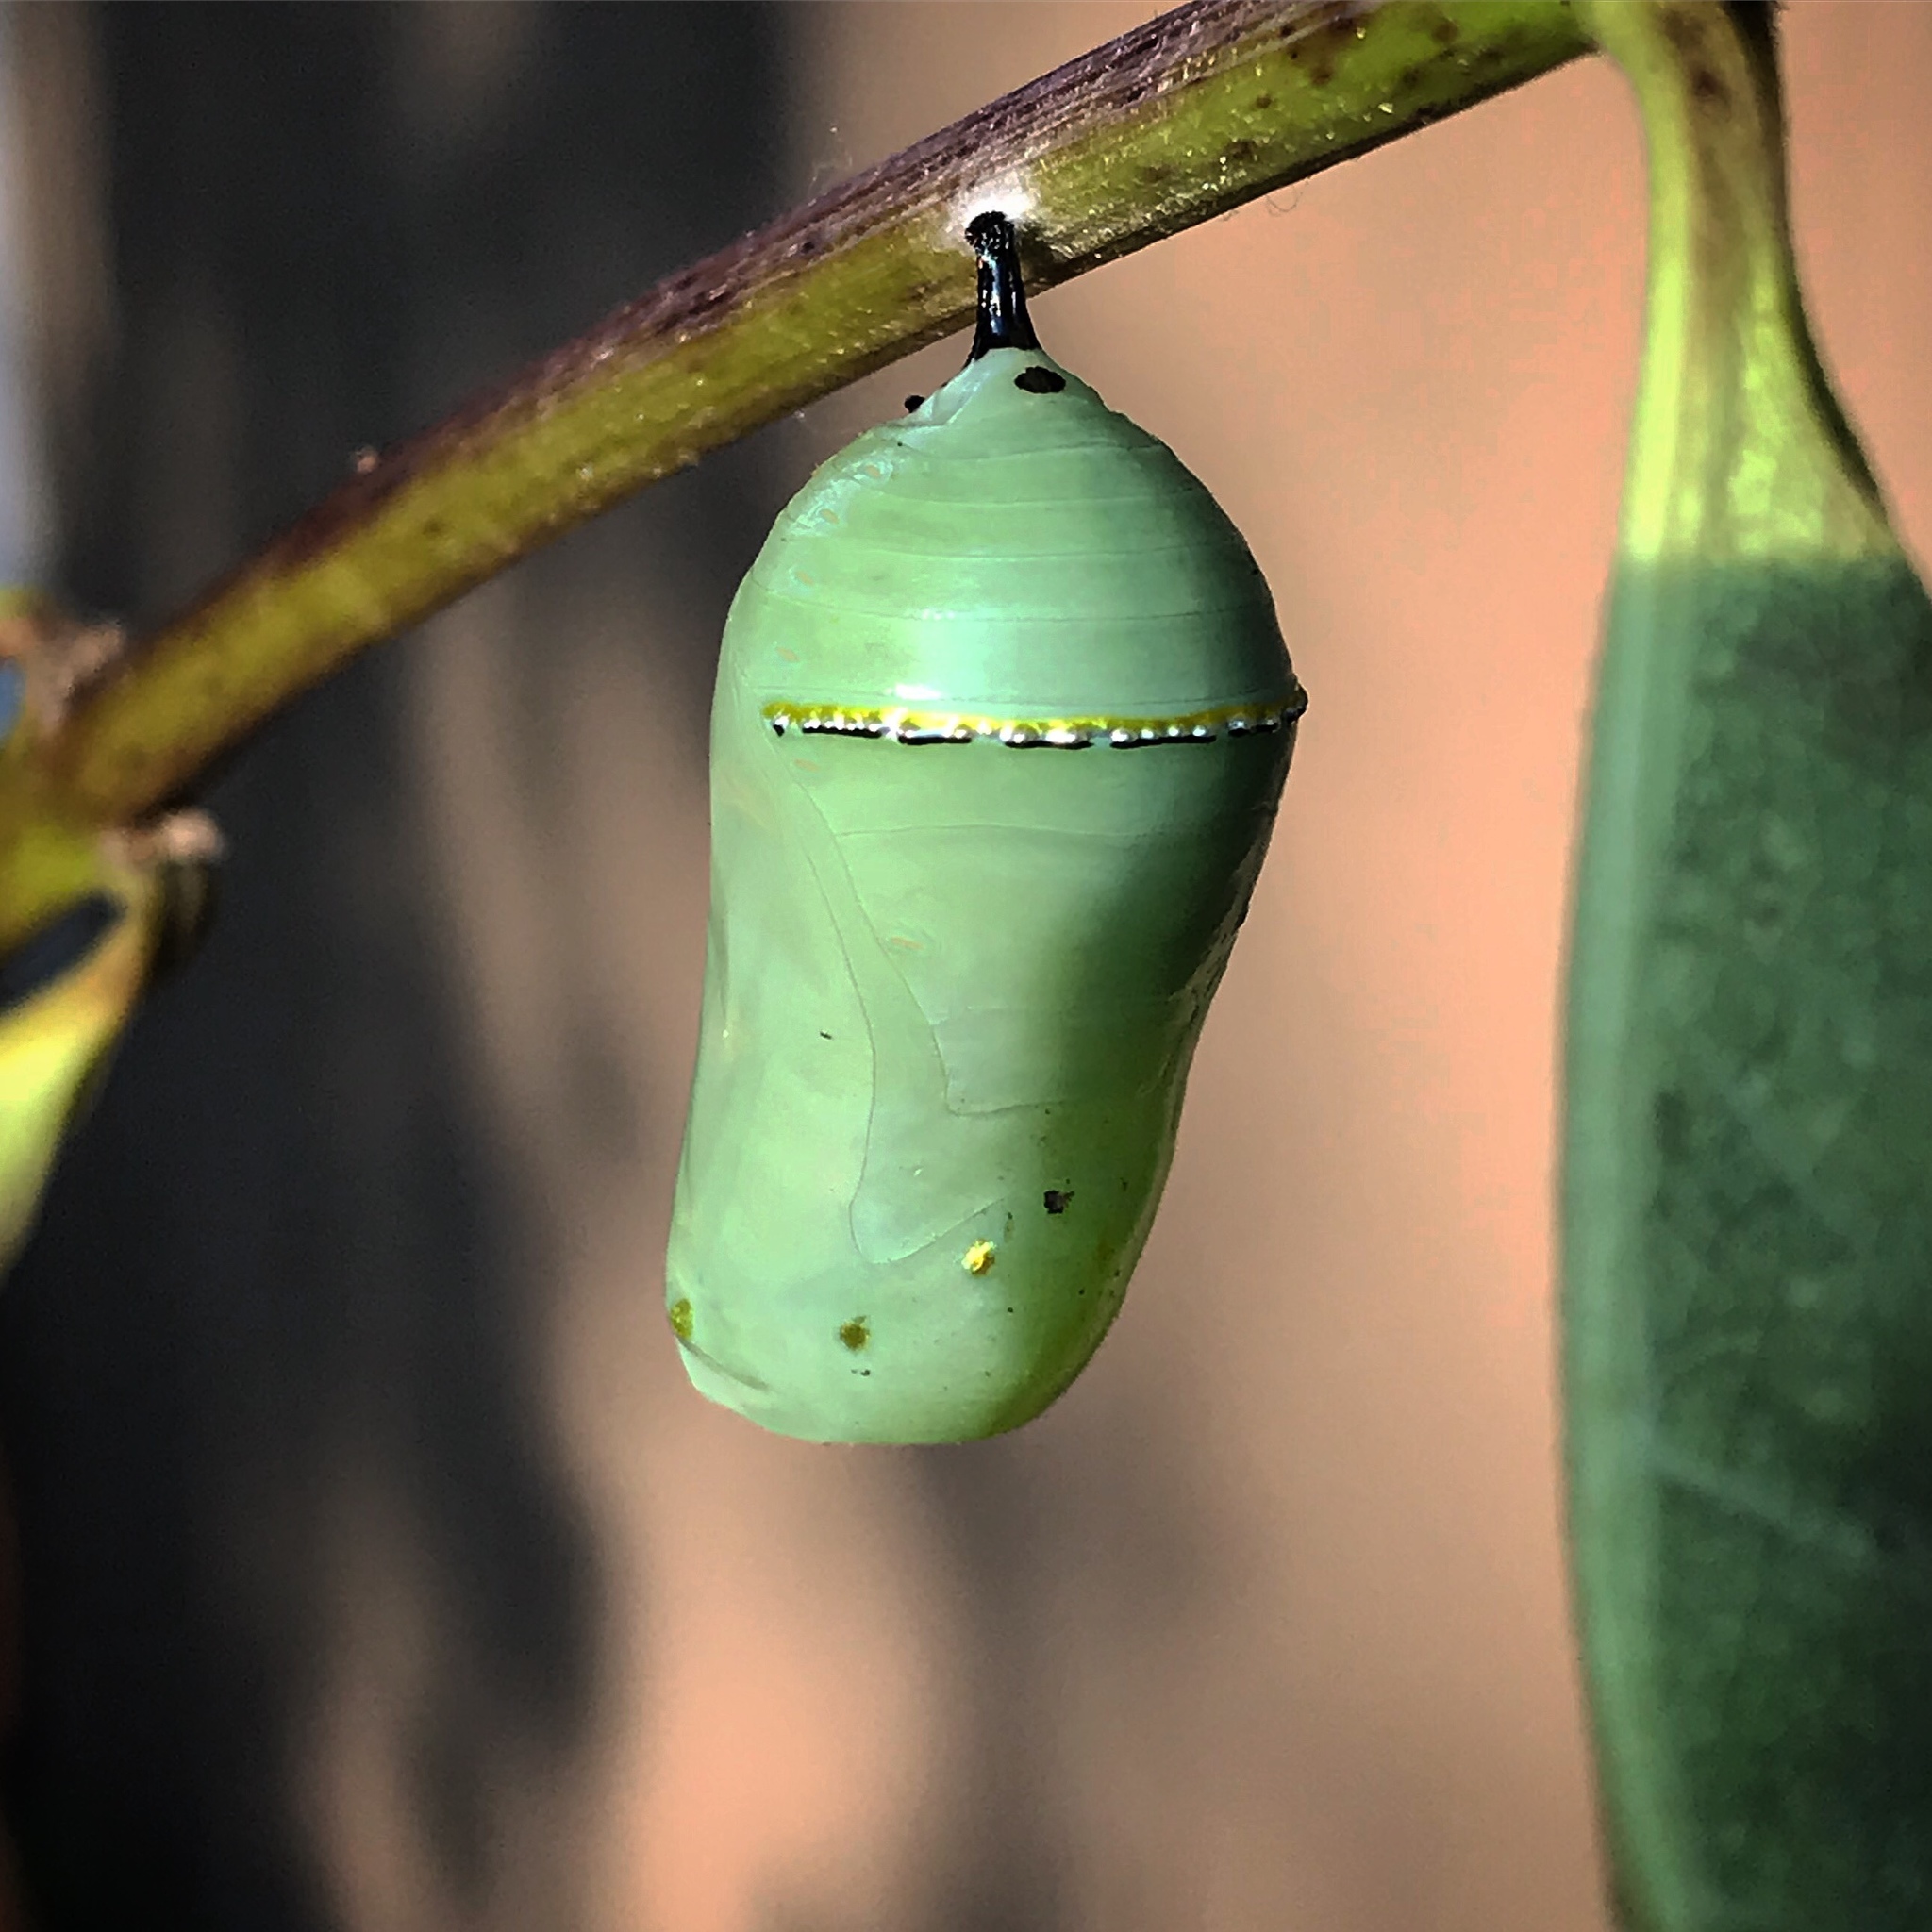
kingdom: Animalia
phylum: Arthropoda
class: Insecta
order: Lepidoptera
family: Nymphalidae
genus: Danaus
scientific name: Danaus plexippus
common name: Monarch
